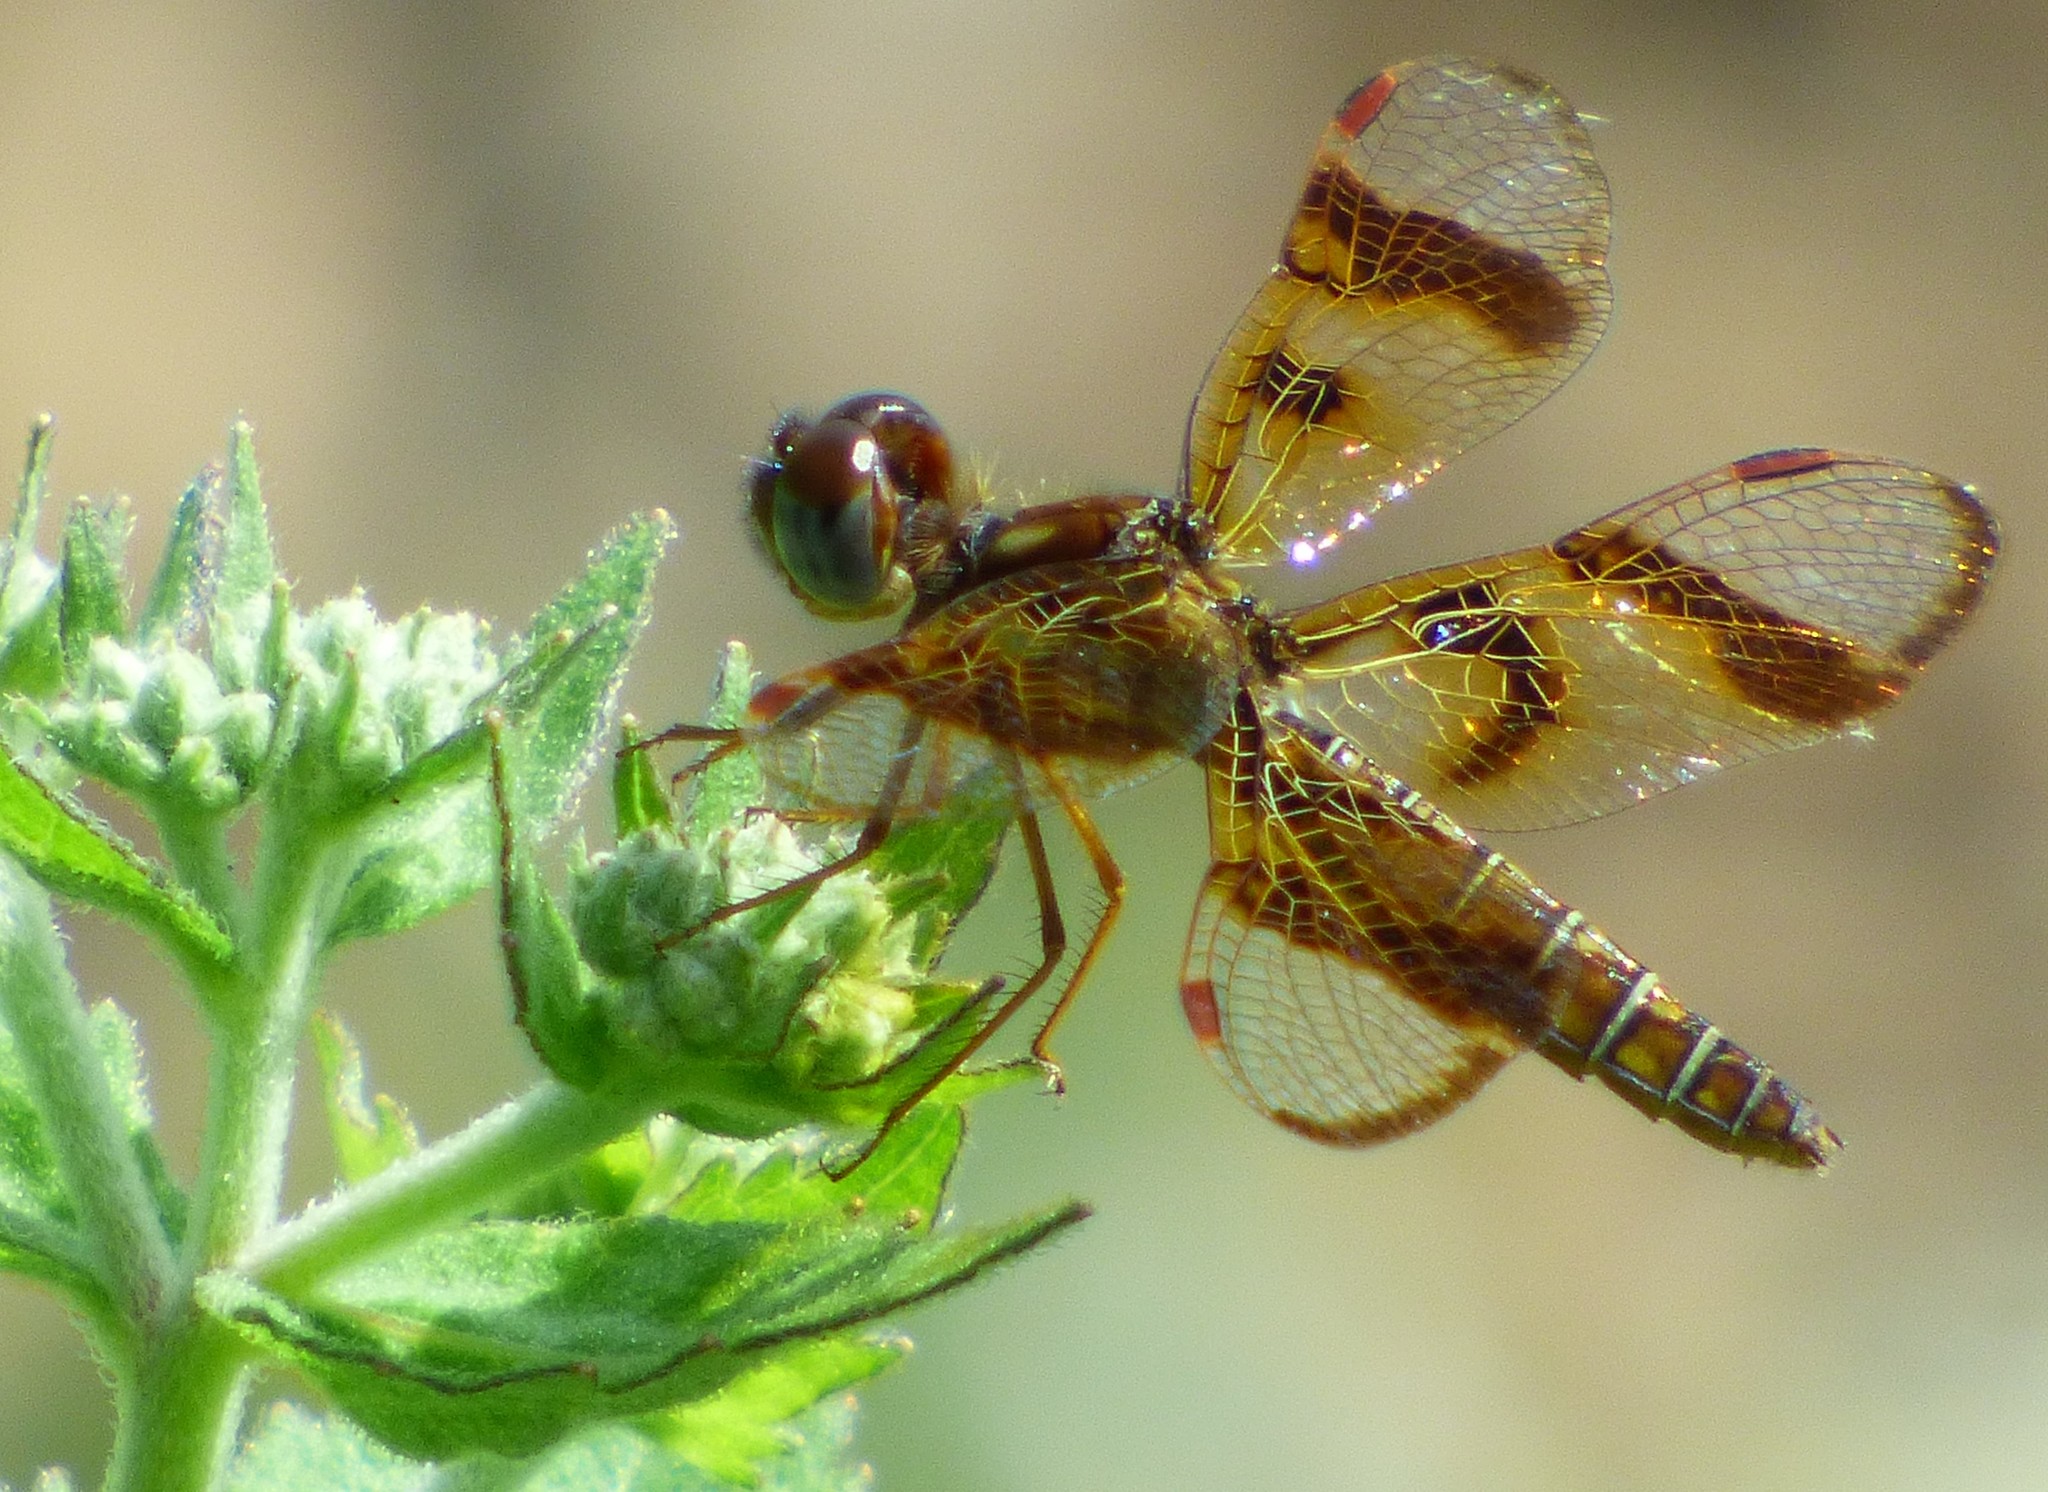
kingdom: Animalia
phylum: Arthropoda
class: Insecta
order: Odonata
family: Libellulidae
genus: Perithemis
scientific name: Perithemis tenera
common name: Eastern amberwing
